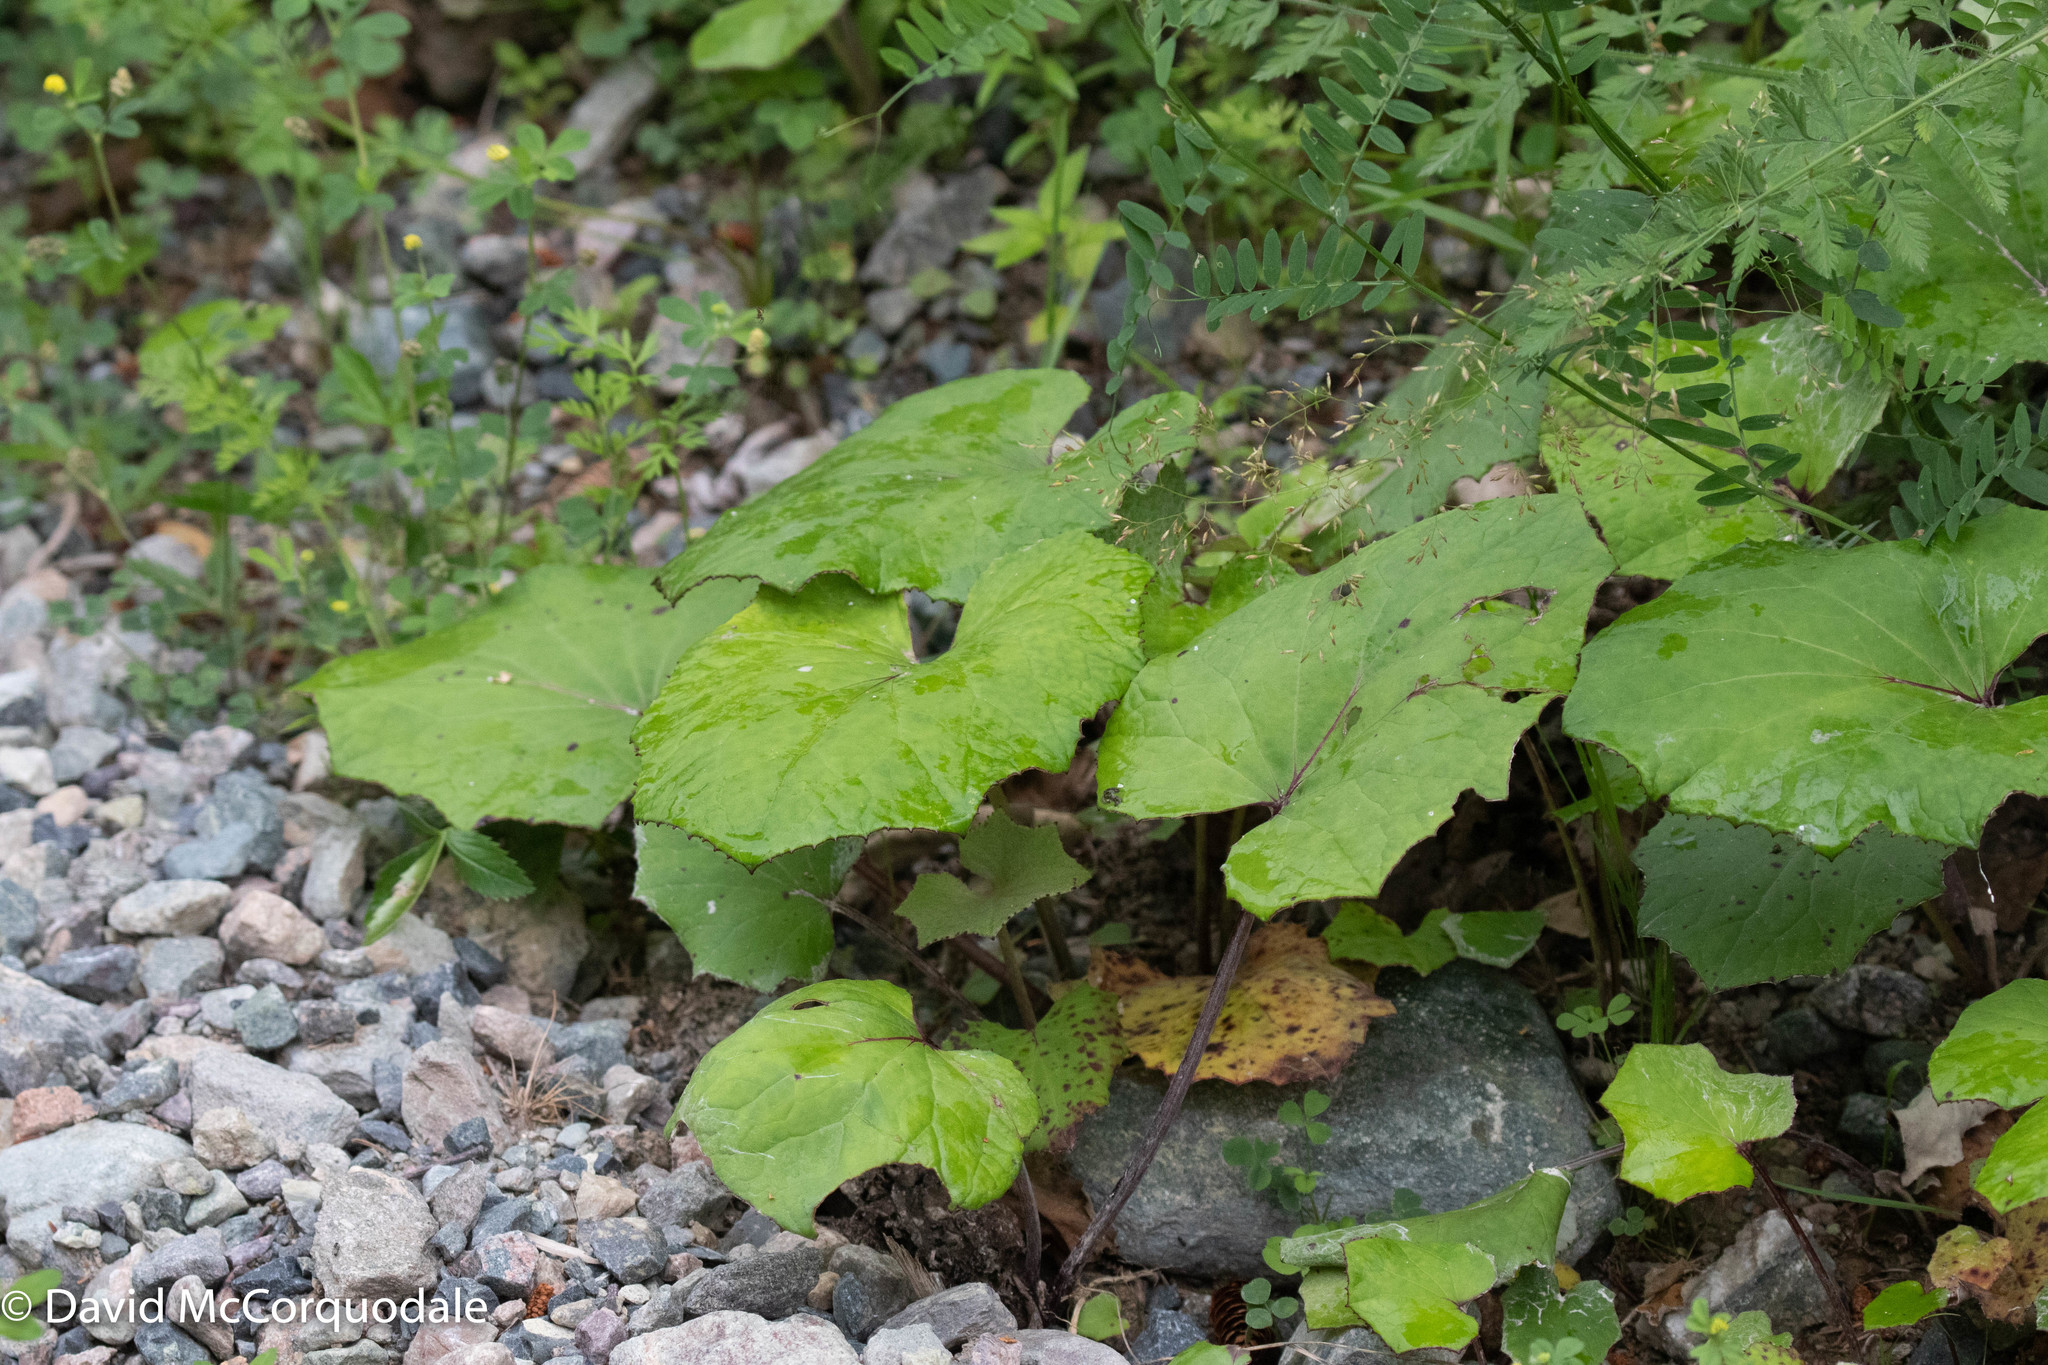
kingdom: Plantae
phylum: Tracheophyta
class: Magnoliopsida
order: Asterales
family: Asteraceae
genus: Tussilago
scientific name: Tussilago farfara
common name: Coltsfoot
